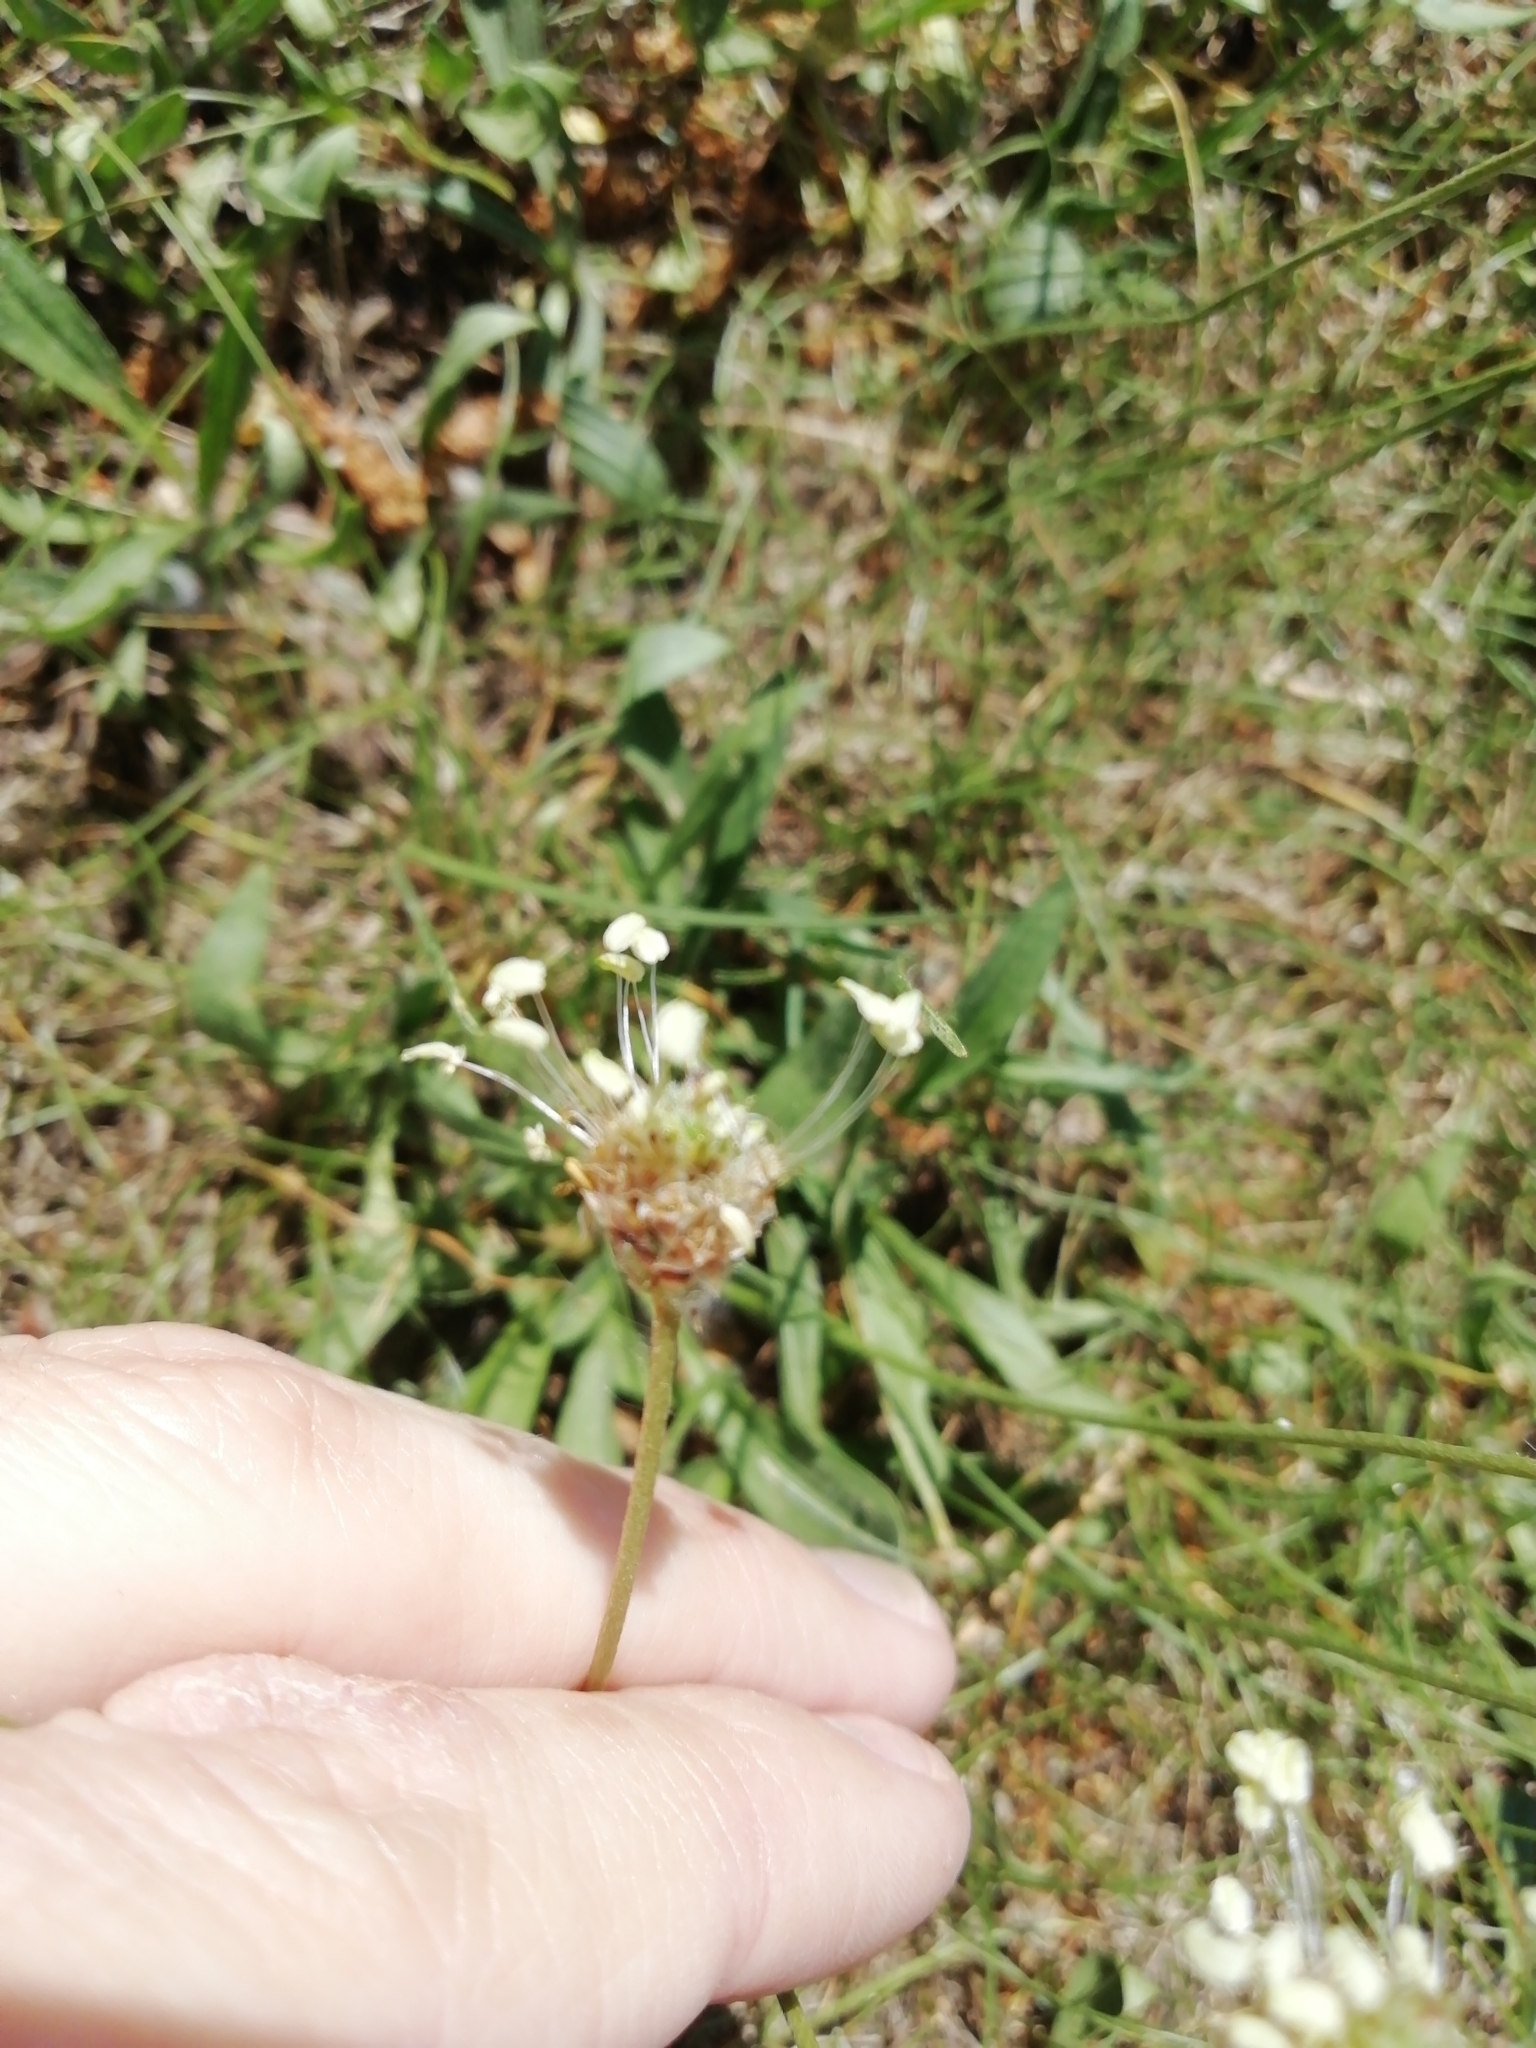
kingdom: Plantae
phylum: Tracheophyta
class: Magnoliopsida
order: Lamiales
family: Plantaginaceae
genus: Plantago
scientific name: Plantago lanceolata
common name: Ribwort plantain
